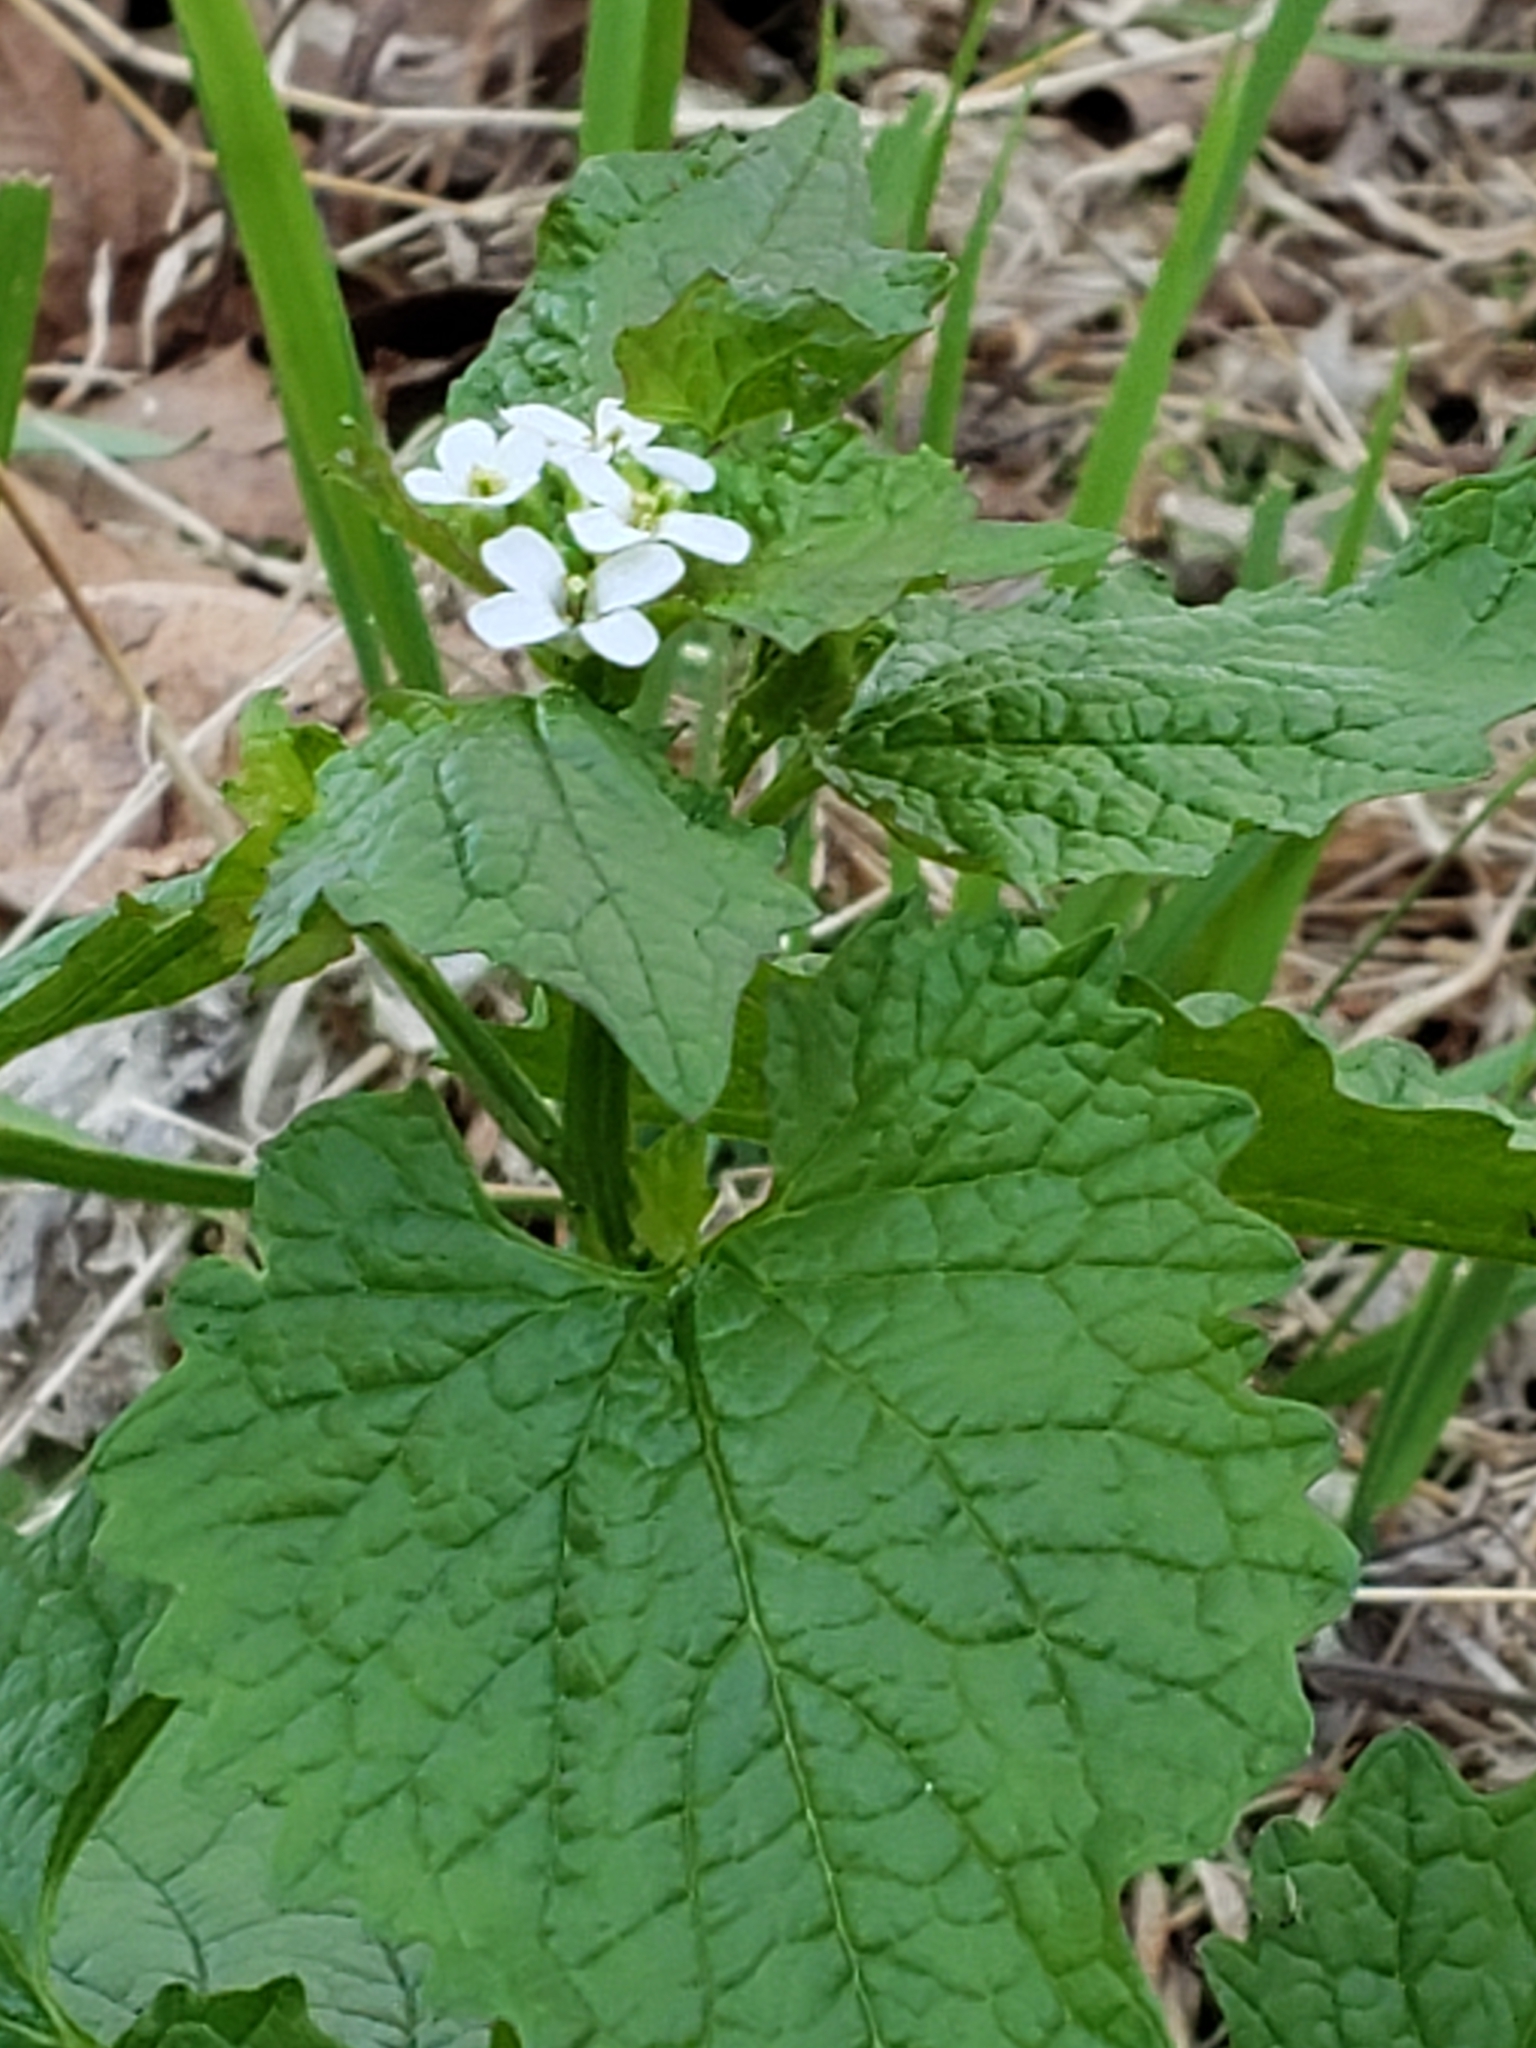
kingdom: Plantae
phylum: Tracheophyta
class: Magnoliopsida
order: Brassicales
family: Brassicaceae
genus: Alliaria
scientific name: Alliaria petiolata
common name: Garlic mustard
